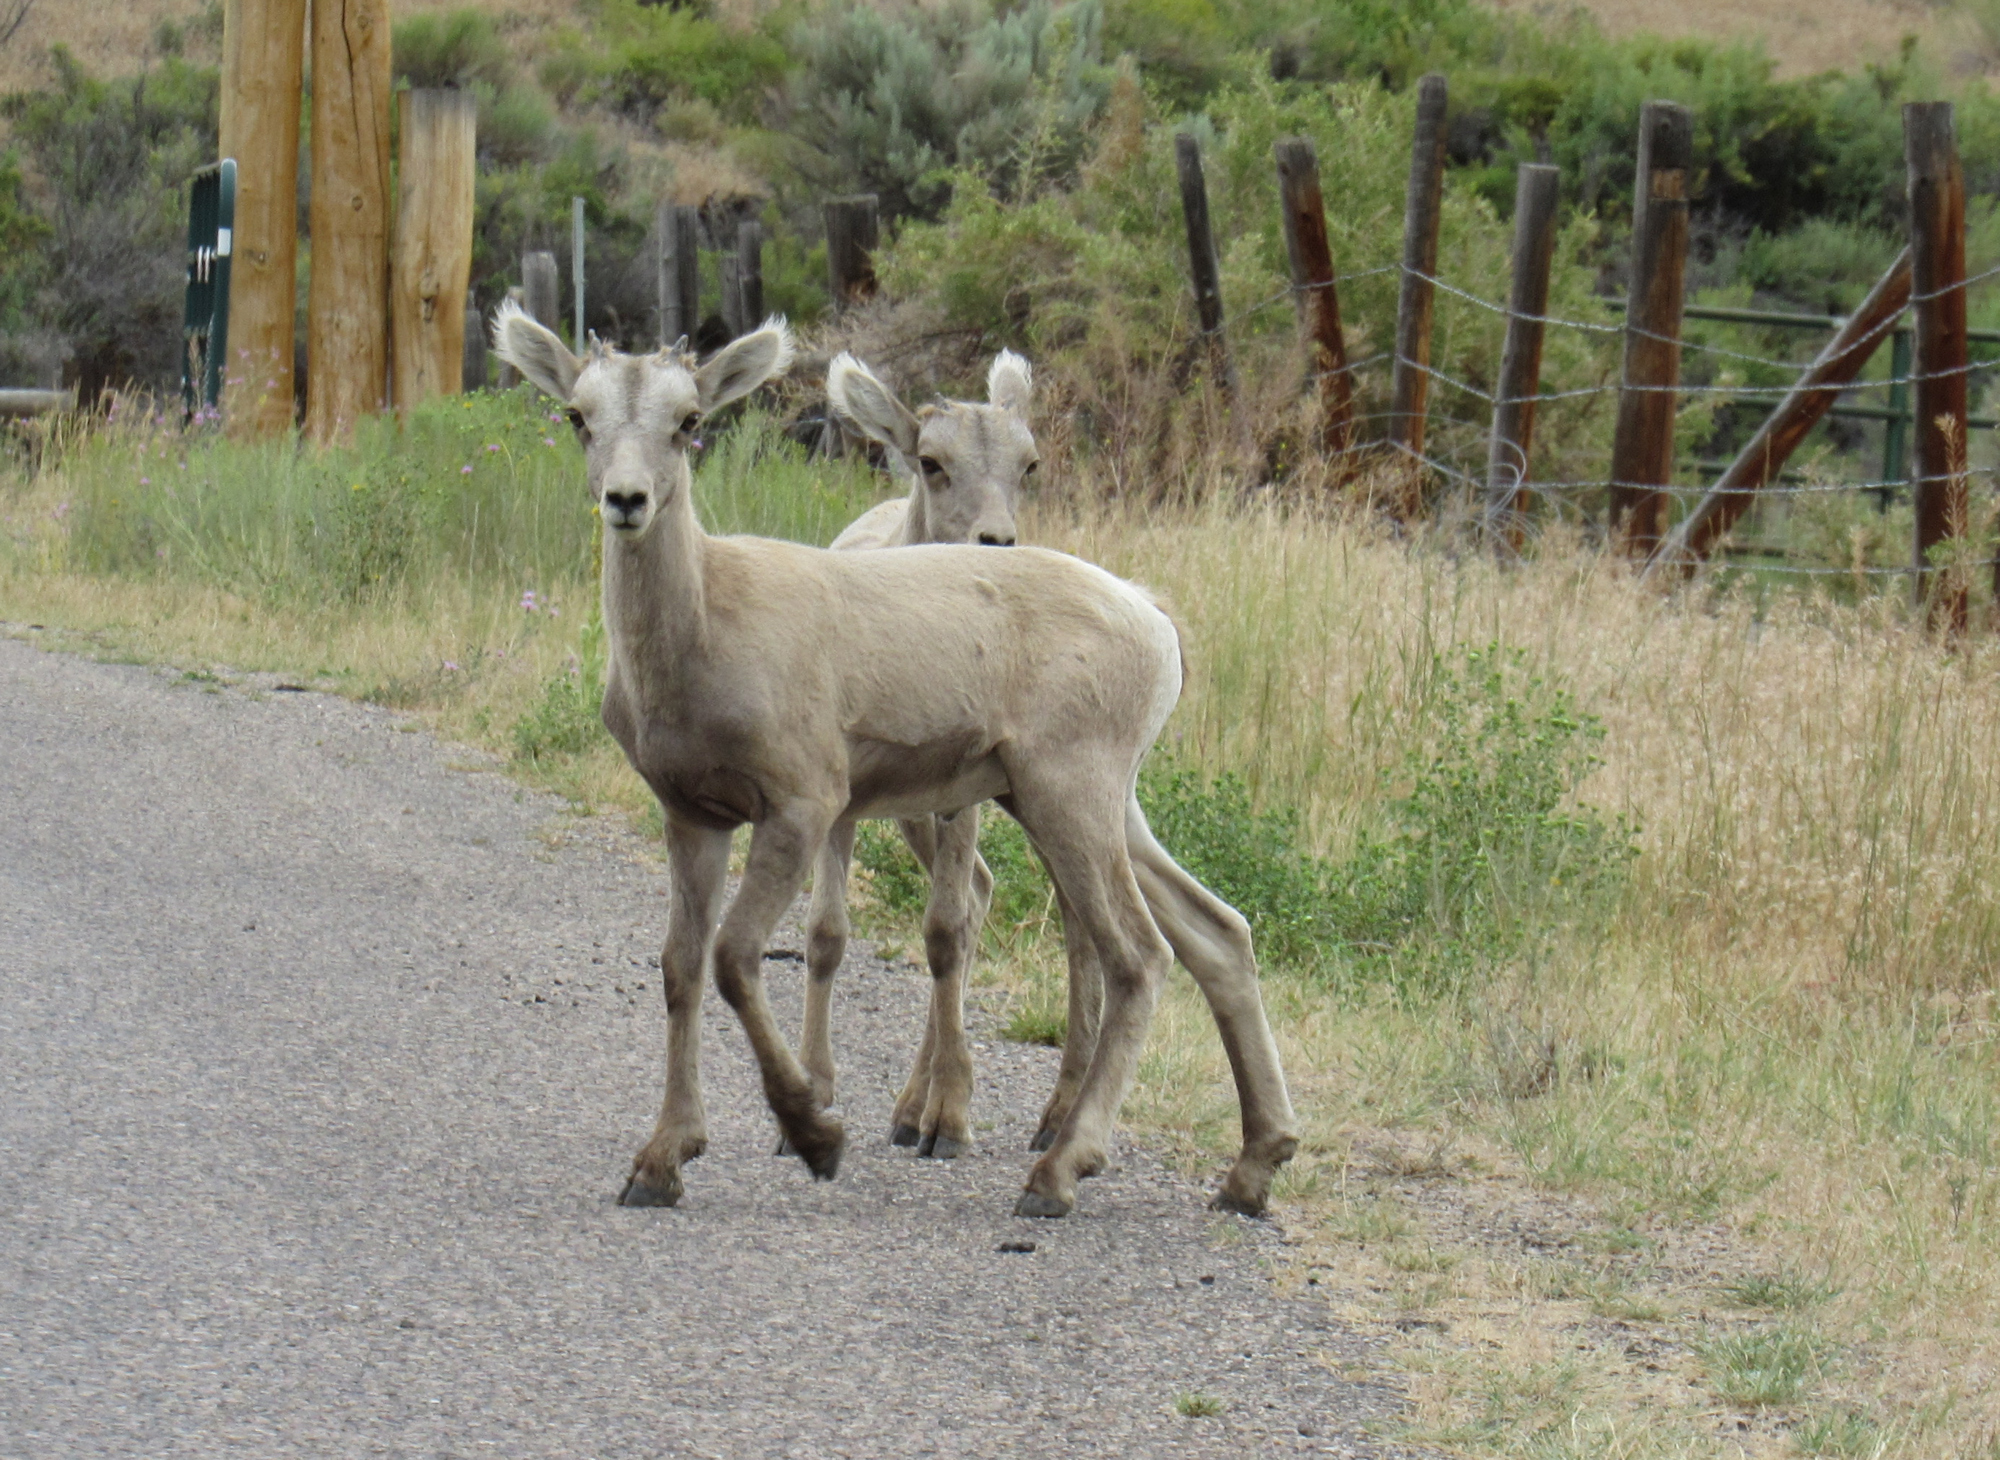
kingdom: Animalia
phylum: Chordata
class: Mammalia
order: Artiodactyla
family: Bovidae
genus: Ovis
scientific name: Ovis canadensis
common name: Bighorn sheep
